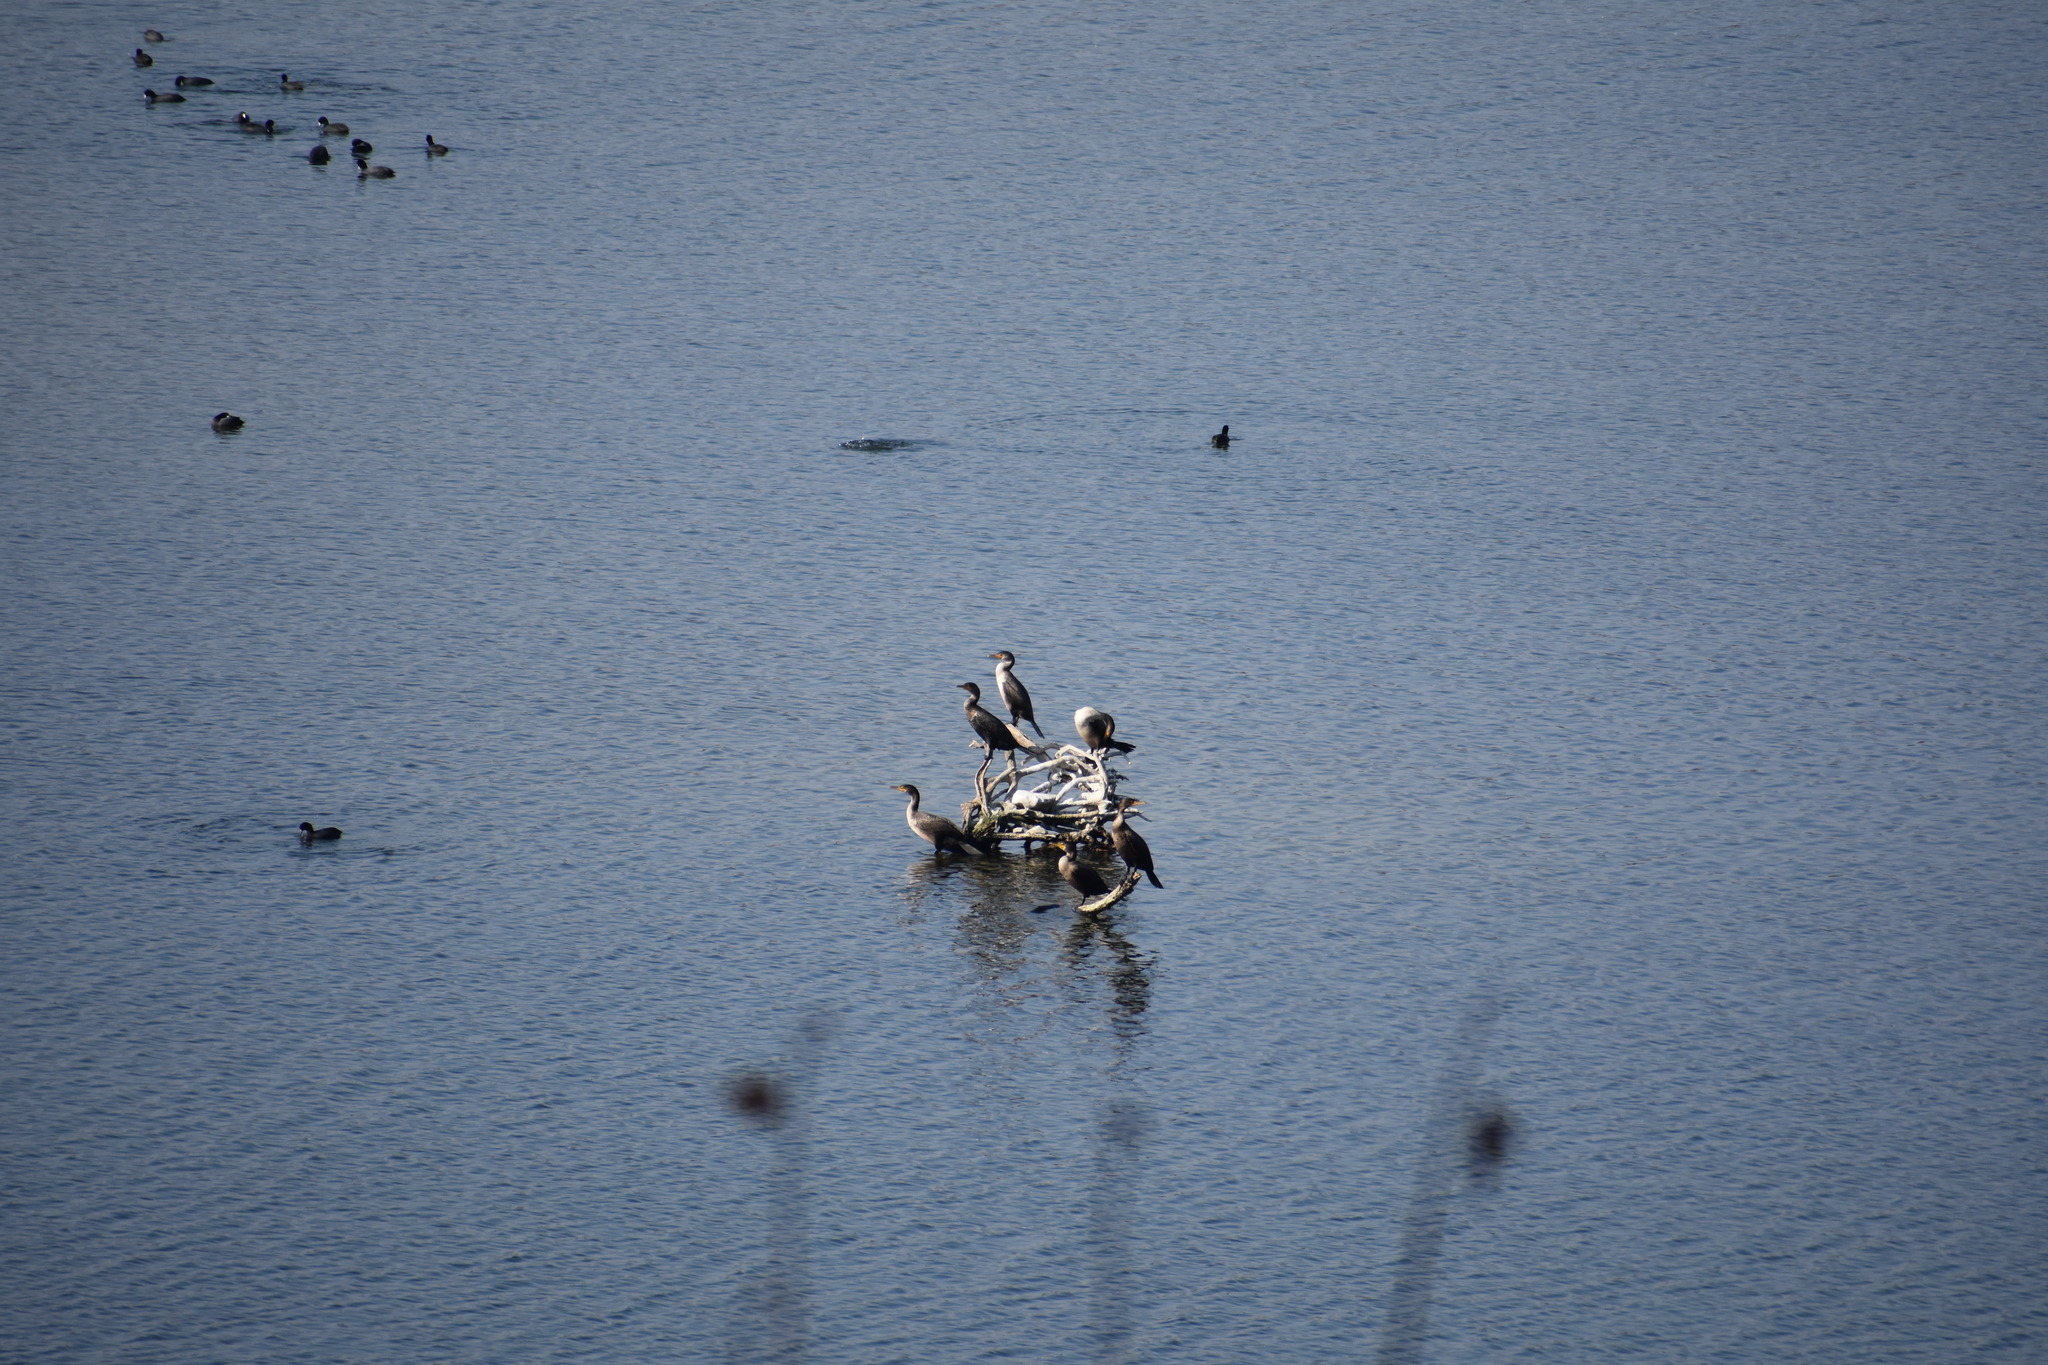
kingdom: Animalia
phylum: Chordata
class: Aves
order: Suliformes
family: Phalacrocoracidae
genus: Phalacrocorax
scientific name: Phalacrocorax auritus
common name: Double-crested cormorant
